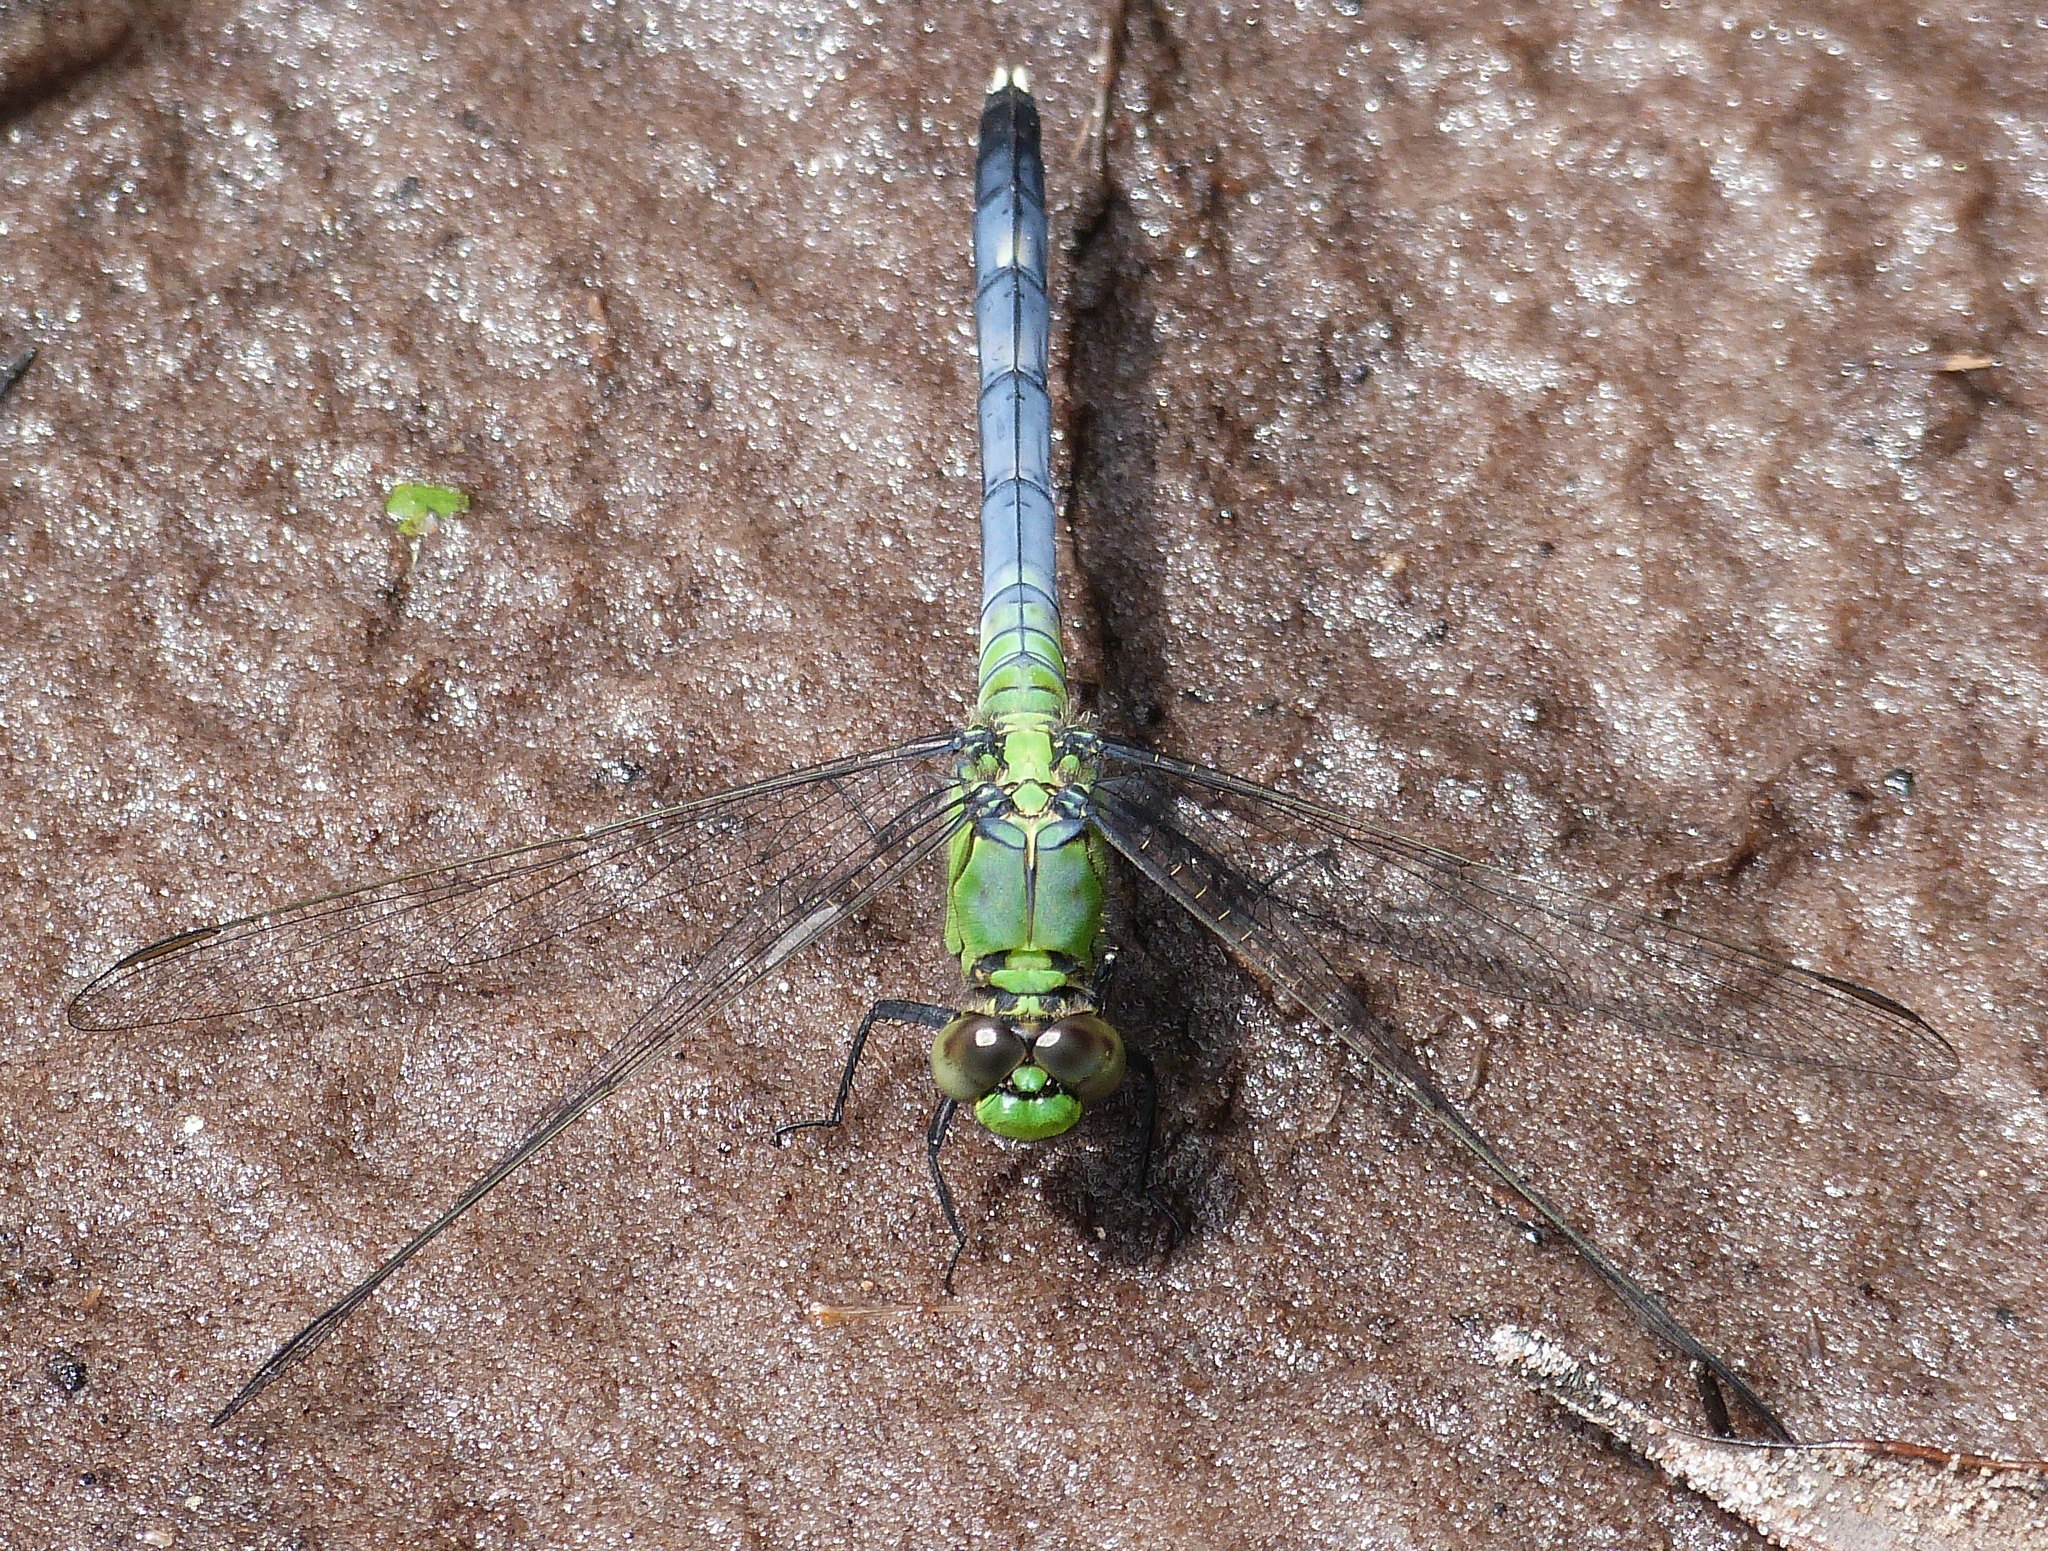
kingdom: Animalia
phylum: Arthropoda
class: Insecta
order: Odonata
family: Libellulidae
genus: Erythemis
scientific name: Erythemis simplicicollis
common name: Eastern pondhawk
